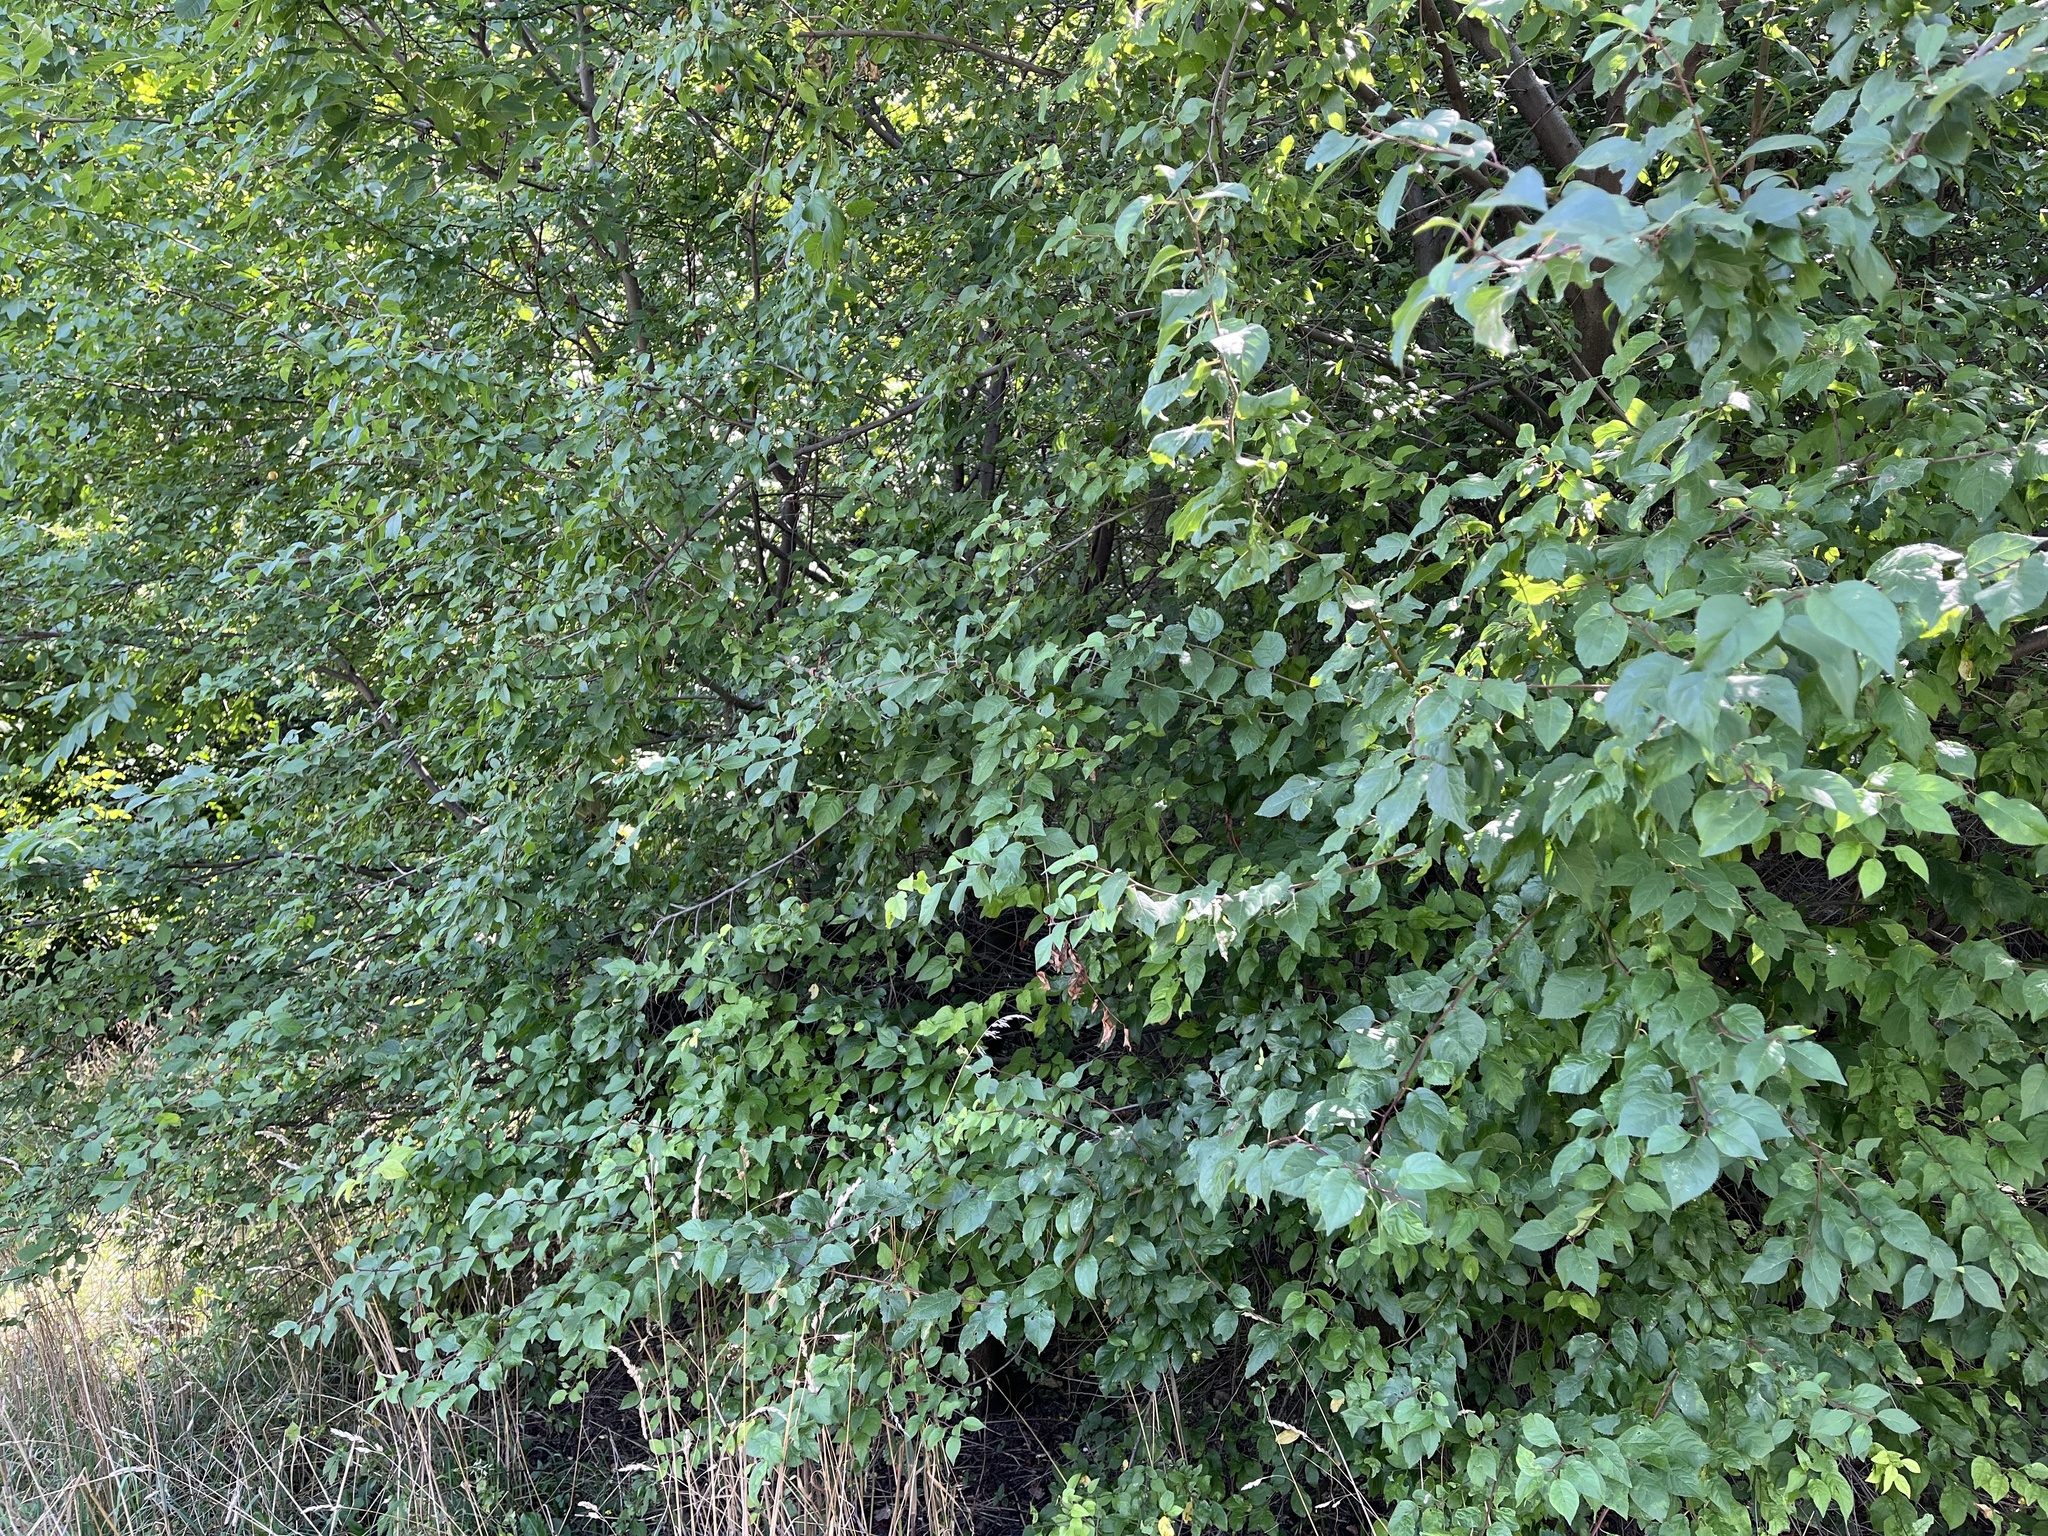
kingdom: Plantae
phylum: Tracheophyta
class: Magnoliopsida
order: Rosales
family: Rosaceae
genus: Prunus
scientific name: Prunus cerasifera
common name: Cherry plum
